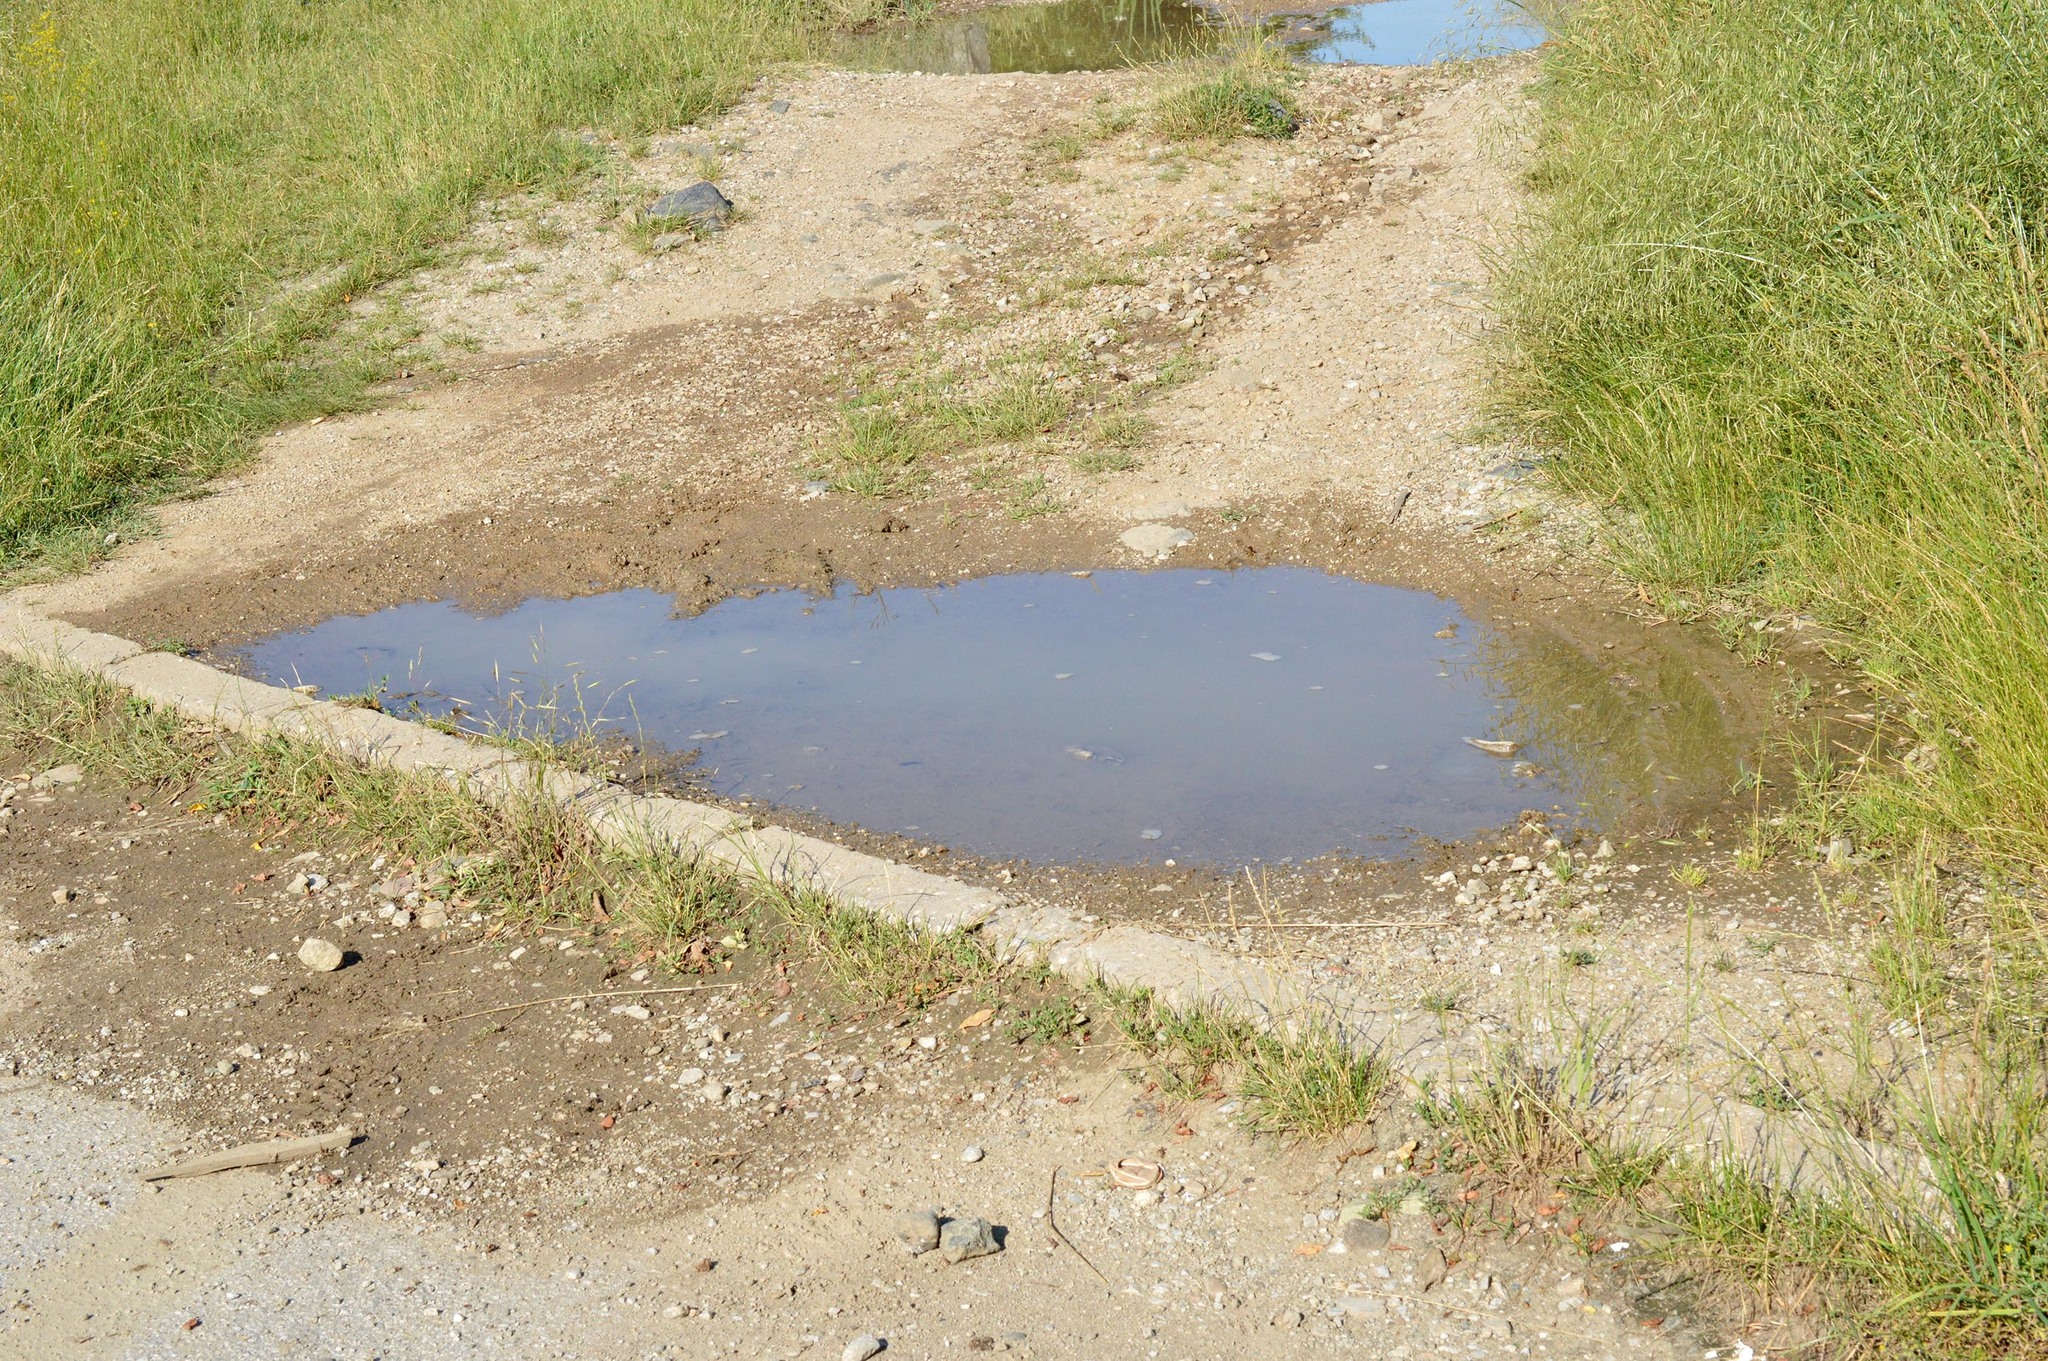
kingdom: Animalia
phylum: Arthropoda
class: Insecta
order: Hymenoptera
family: Sphecidae
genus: Sceliphron
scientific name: Sceliphron curvatum
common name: Pèlopèe
